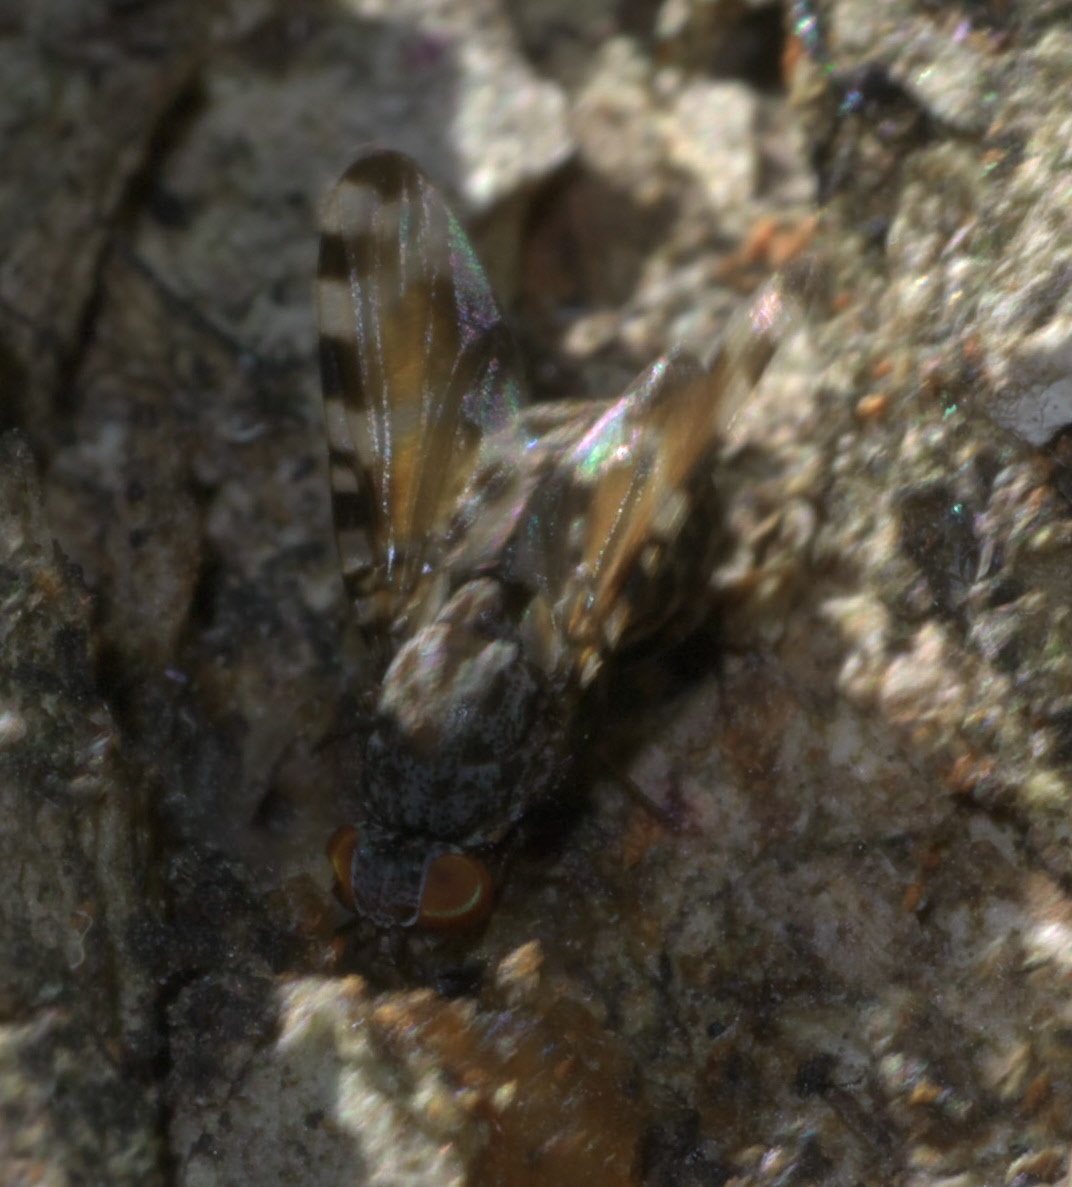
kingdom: Animalia
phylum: Arthropoda
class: Insecta
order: Diptera
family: Ulidiidae
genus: Pseudotephritis
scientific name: Pseudotephritis vau
